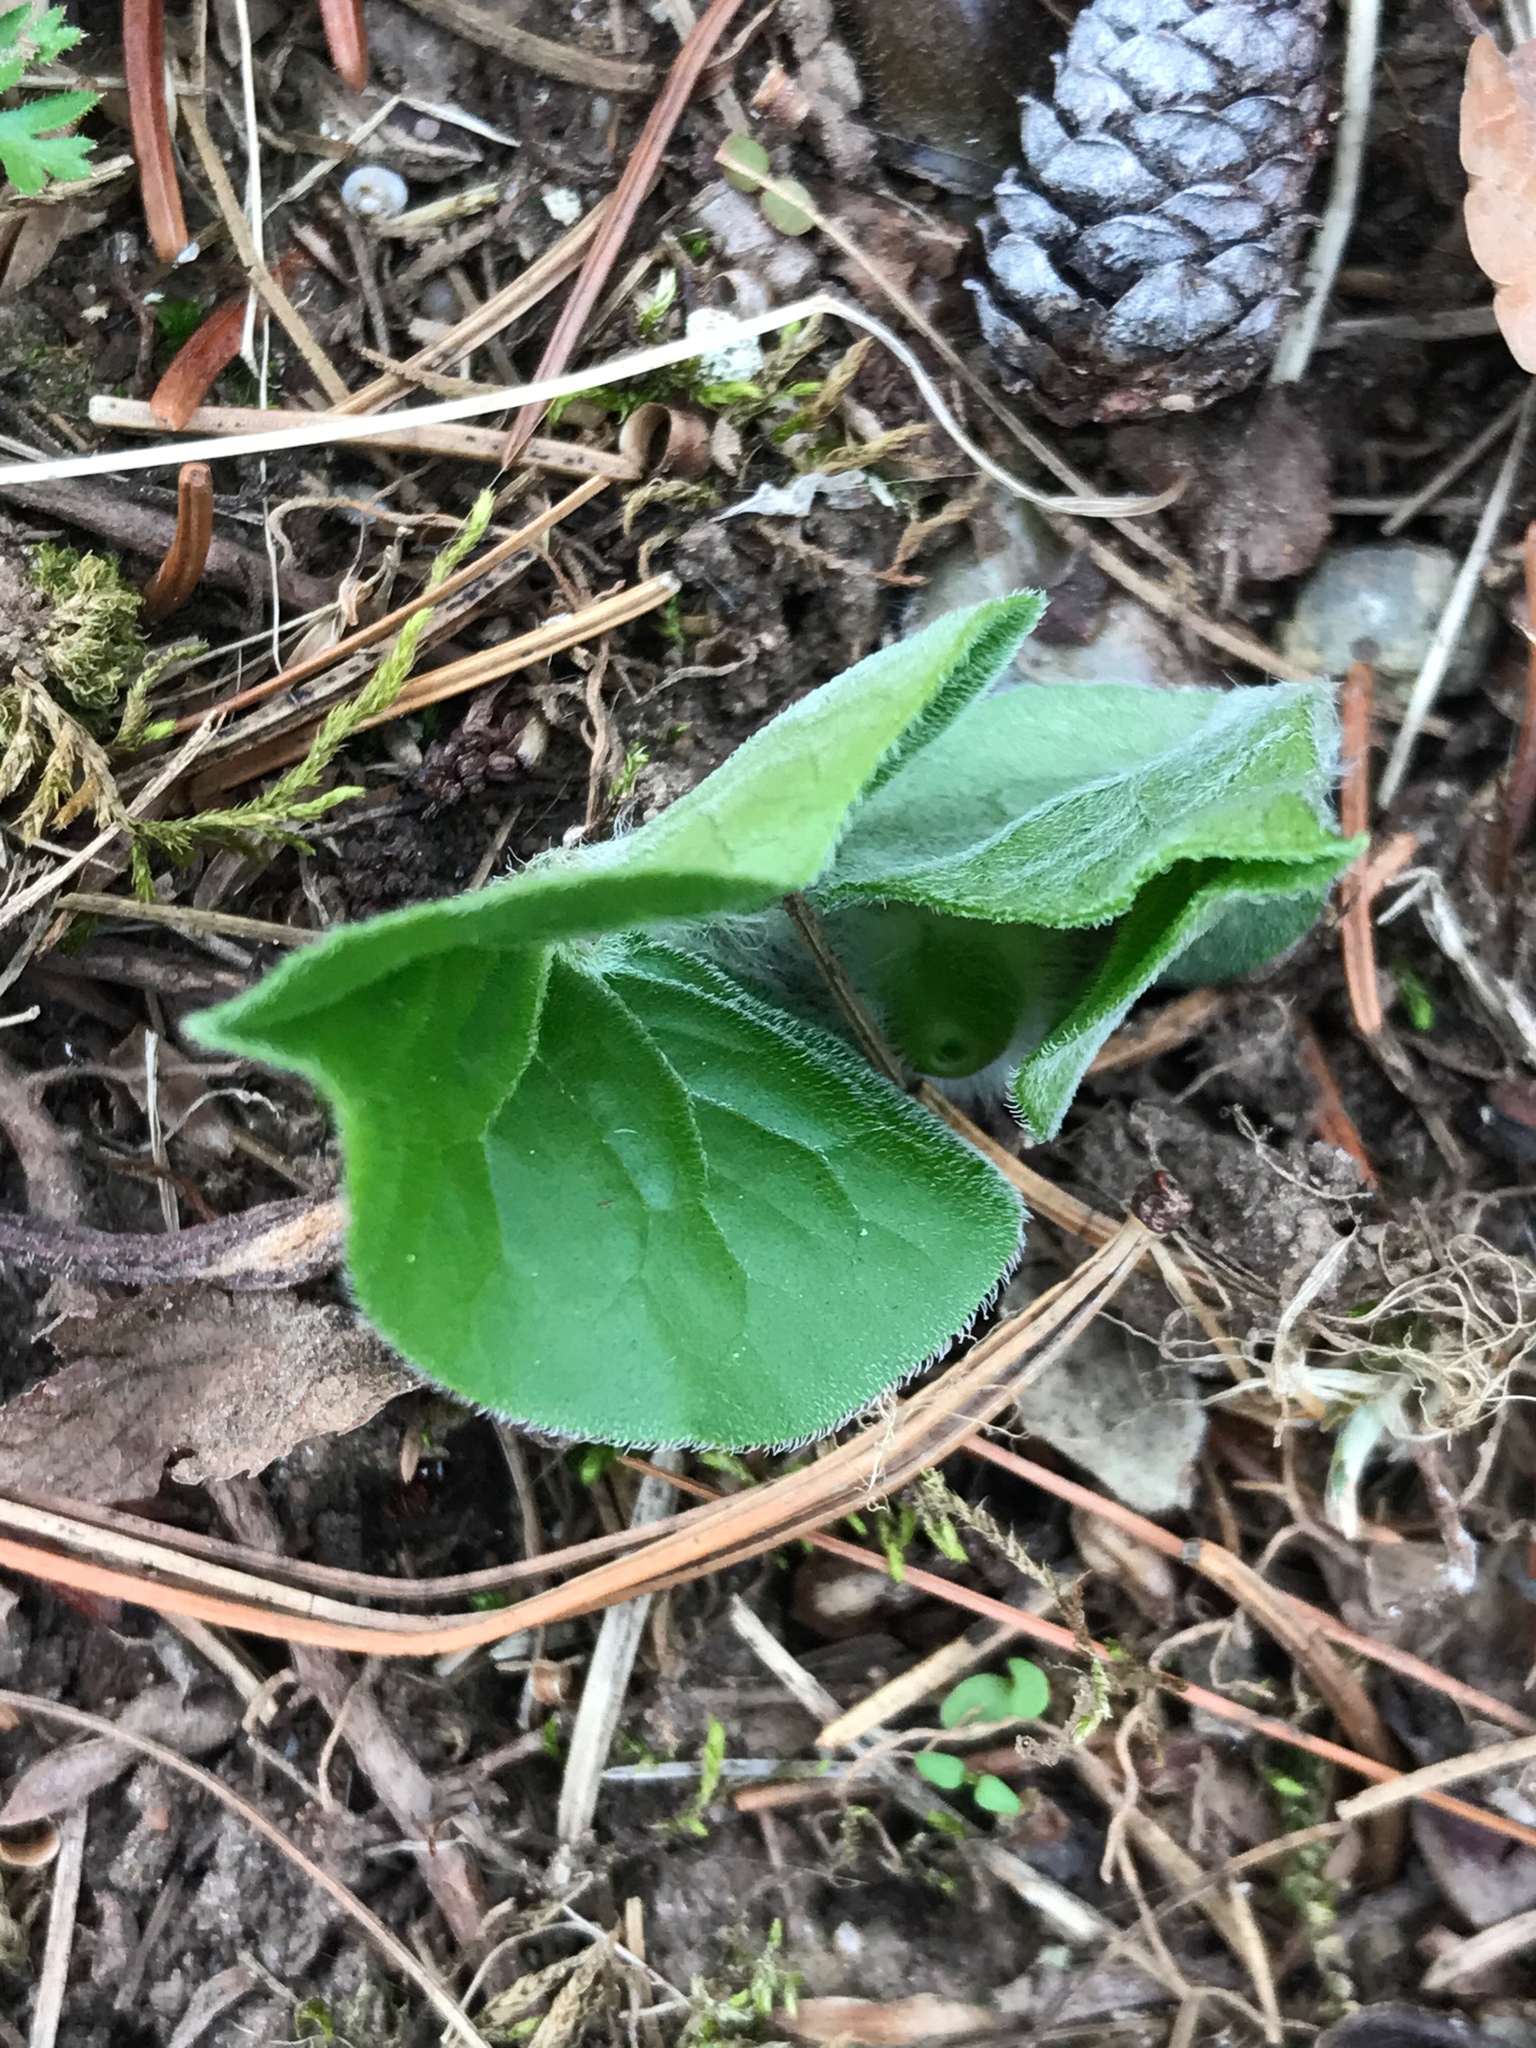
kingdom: Plantae
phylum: Tracheophyta
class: Magnoliopsida
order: Piperales
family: Aristolochiaceae
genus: Asarum
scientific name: Asarum canadense
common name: Wild ginger
